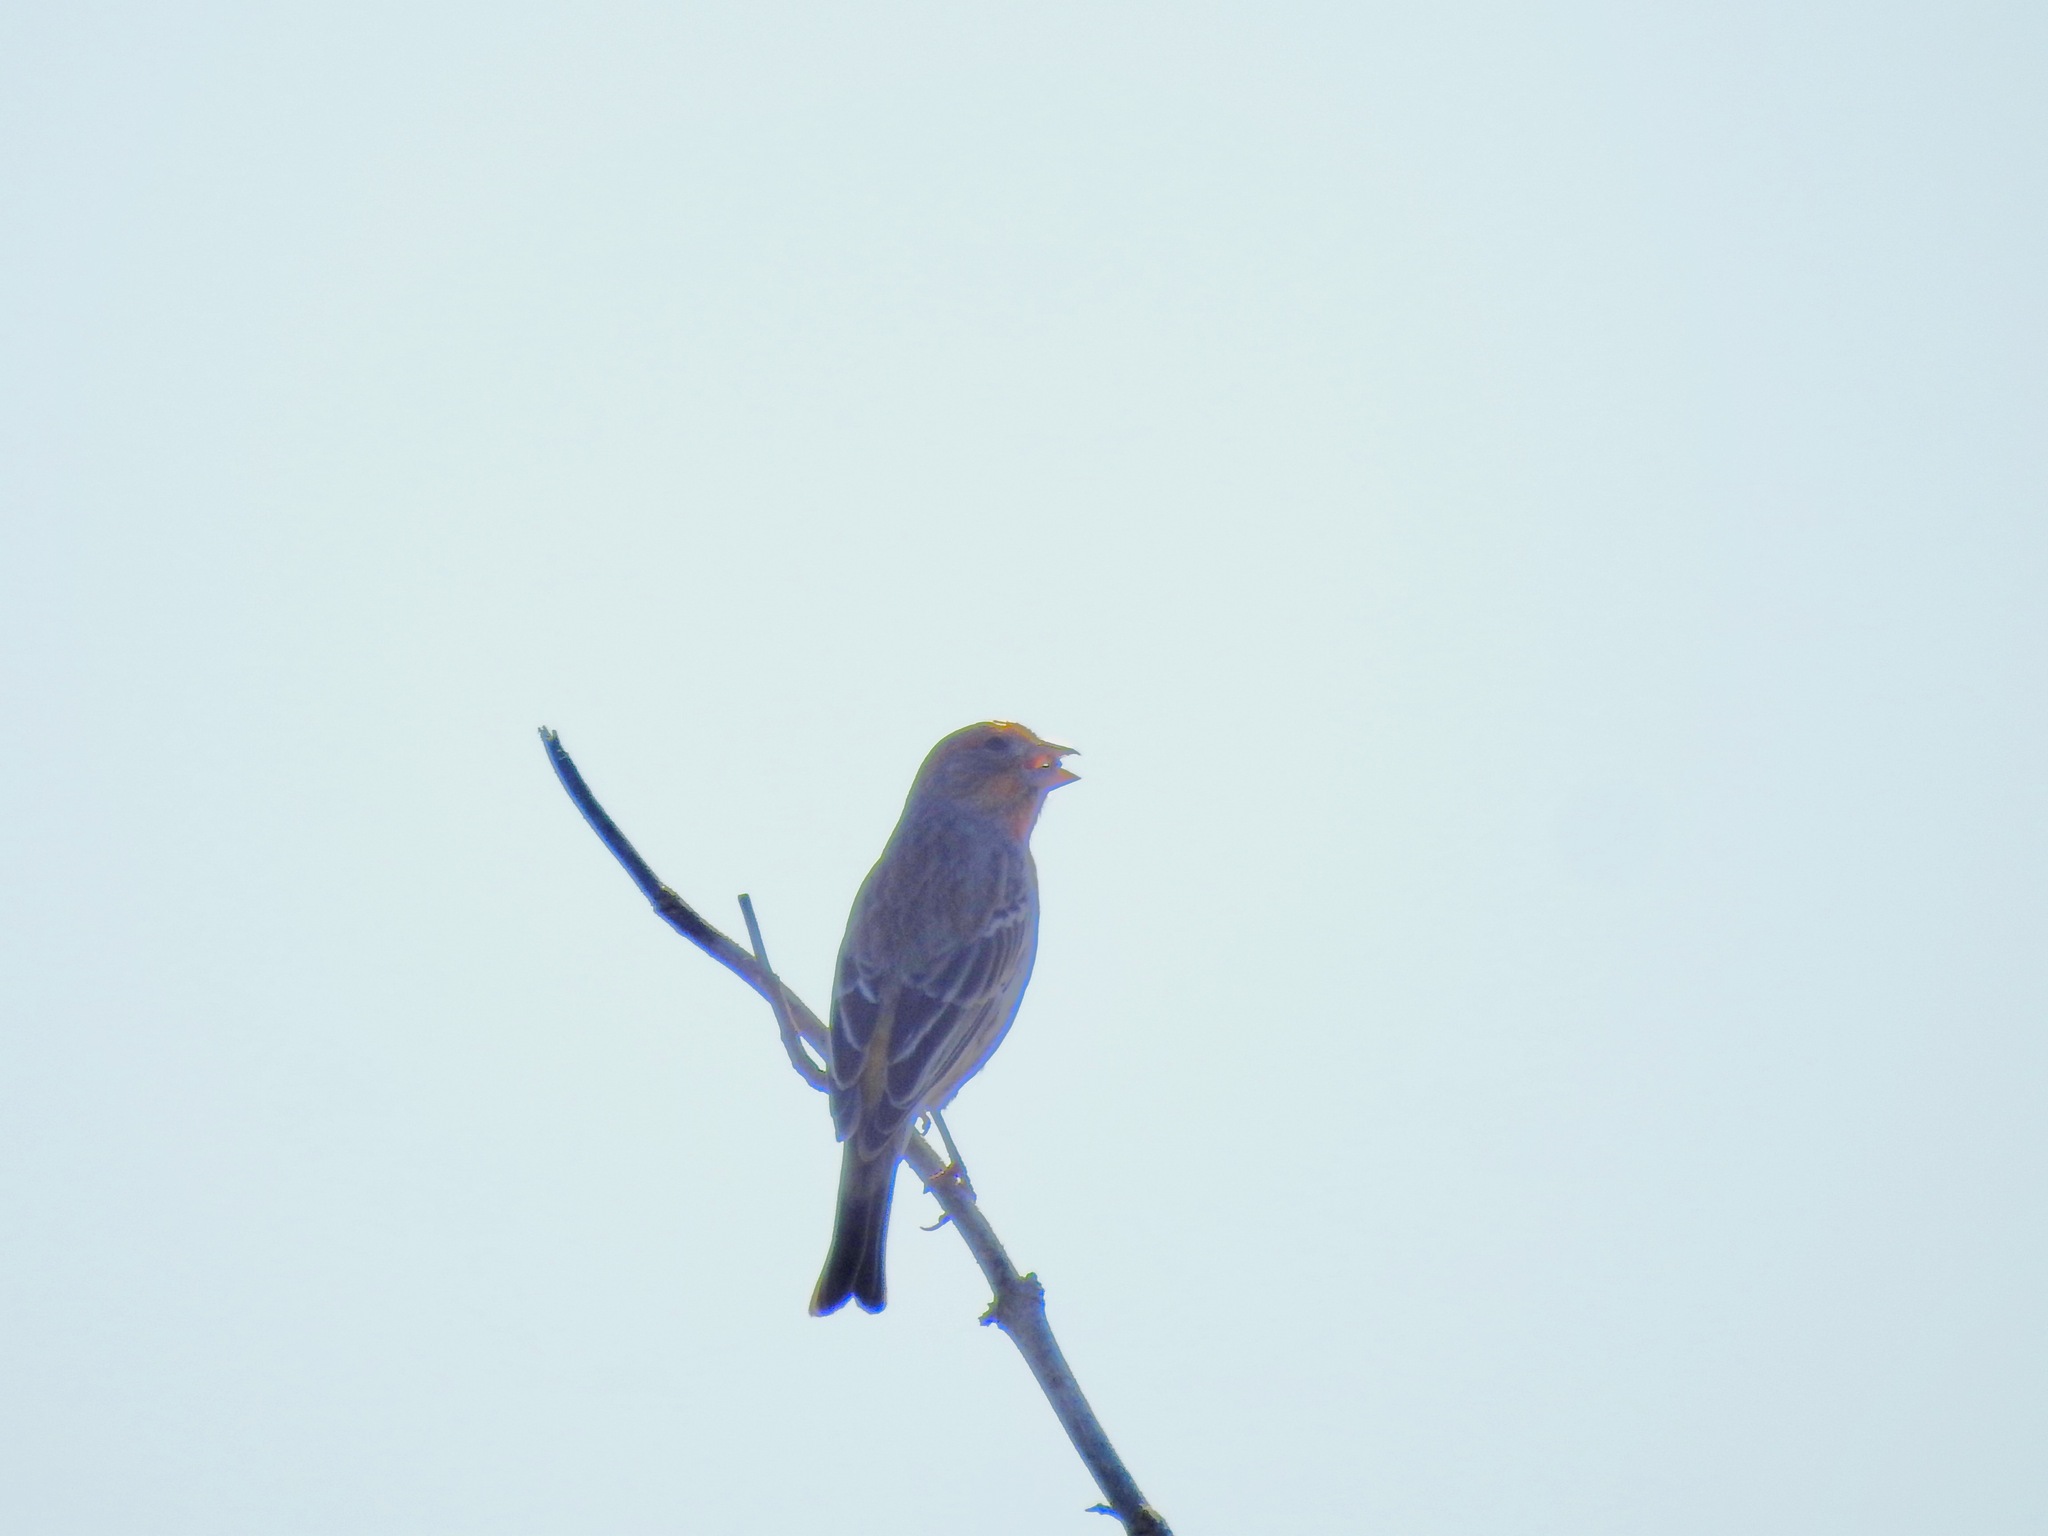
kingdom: Animalia
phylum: Chordata
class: Aves
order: Passeriformes
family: Fringillidae
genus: Haemorhous
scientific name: Haemorhous mexicanus
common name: House finch
